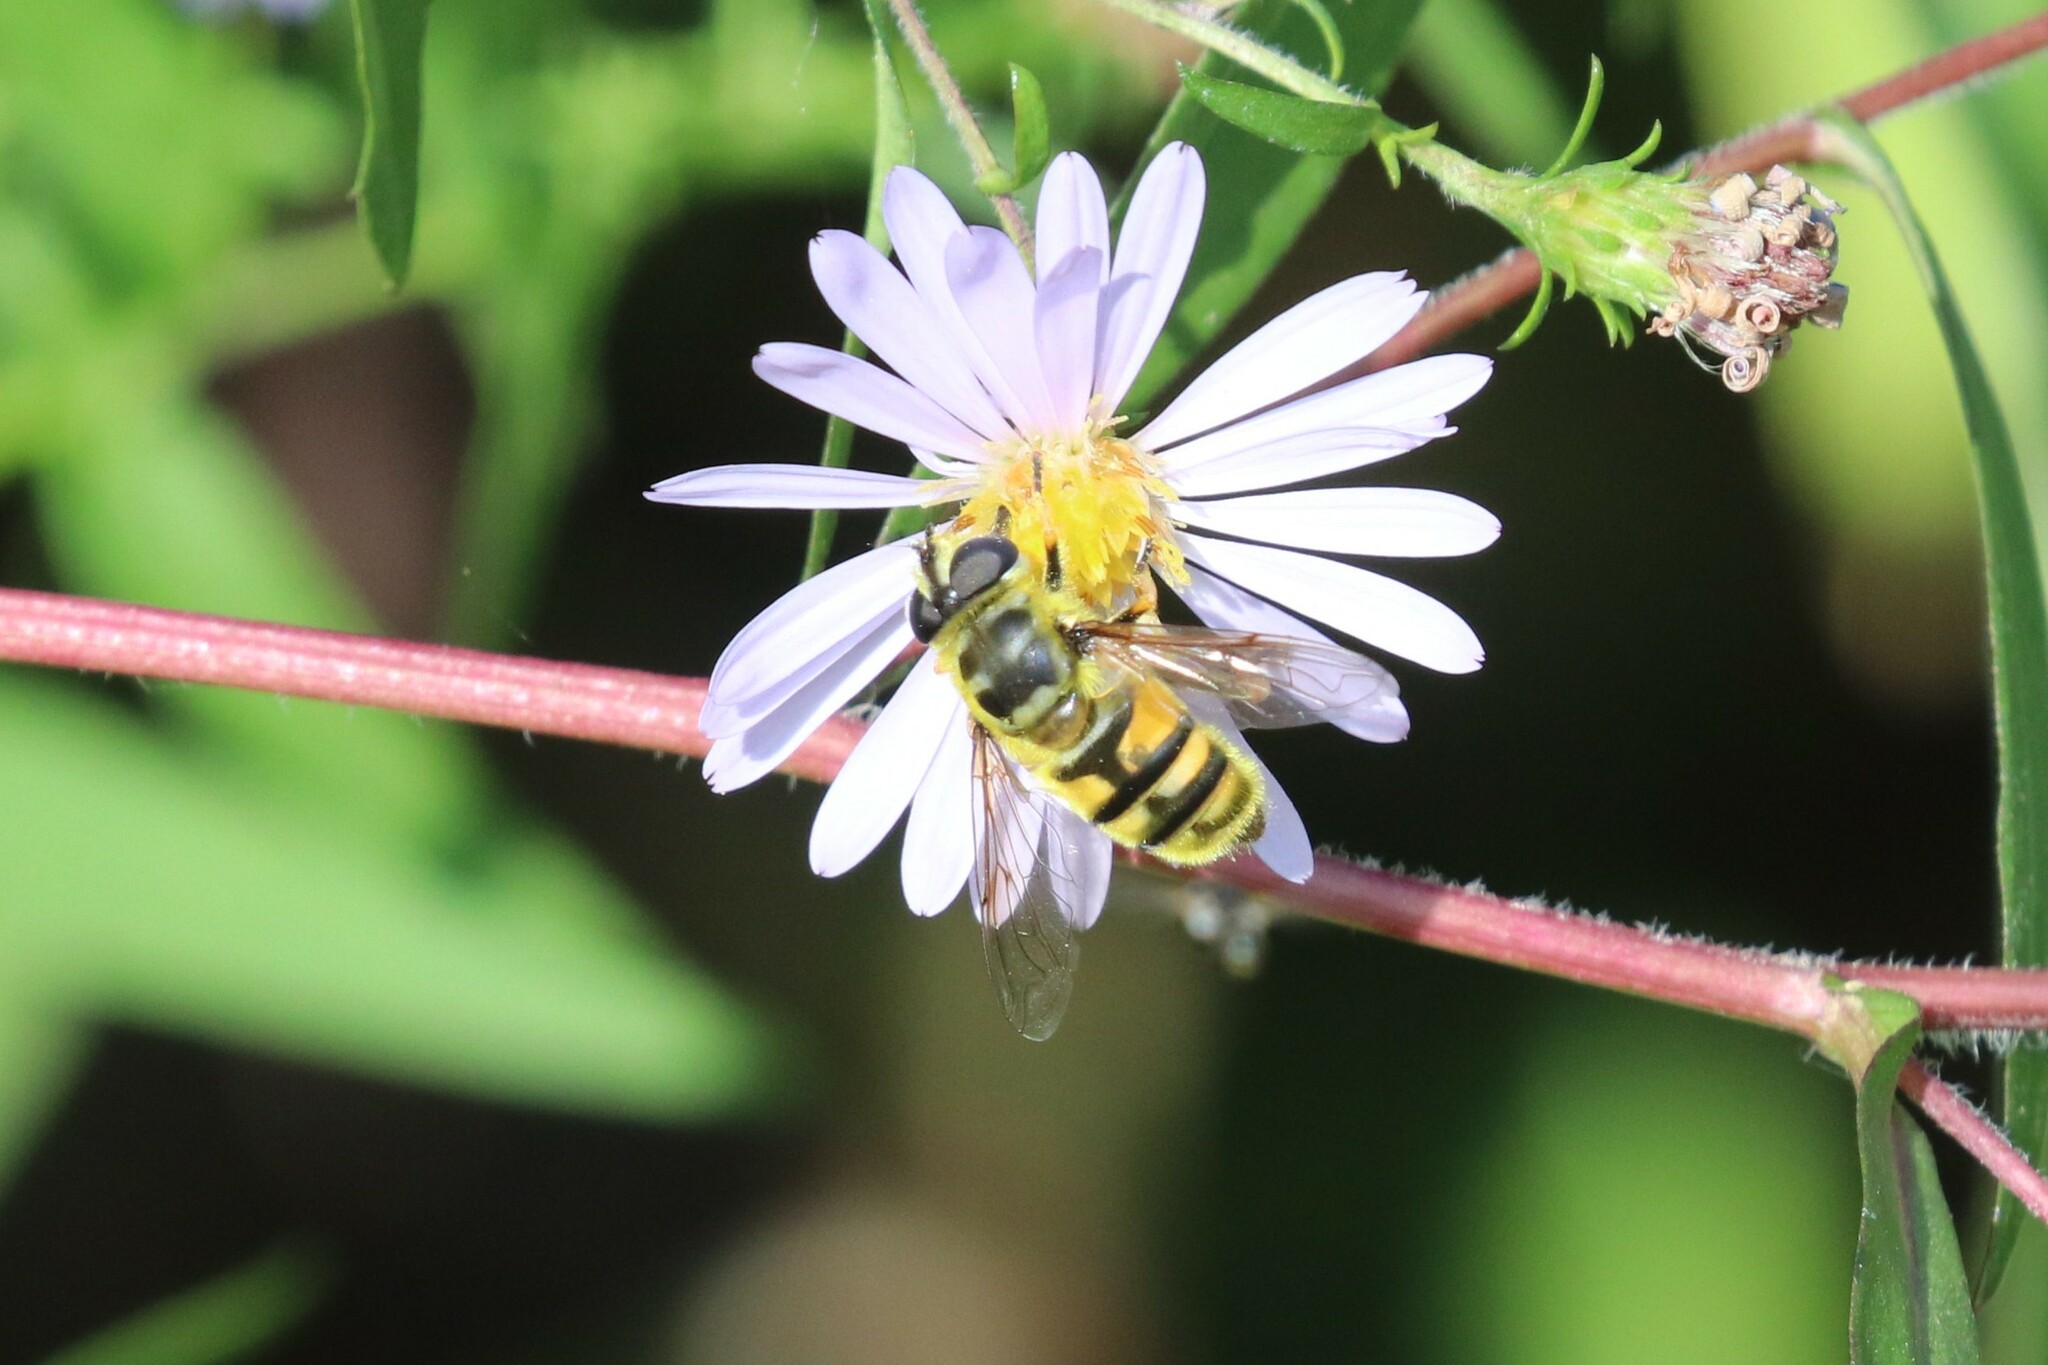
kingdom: Animalia
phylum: Arthropoda
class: Insecta
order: Diptera
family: Syrphidae
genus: Myathropa
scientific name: Myathropa florea
